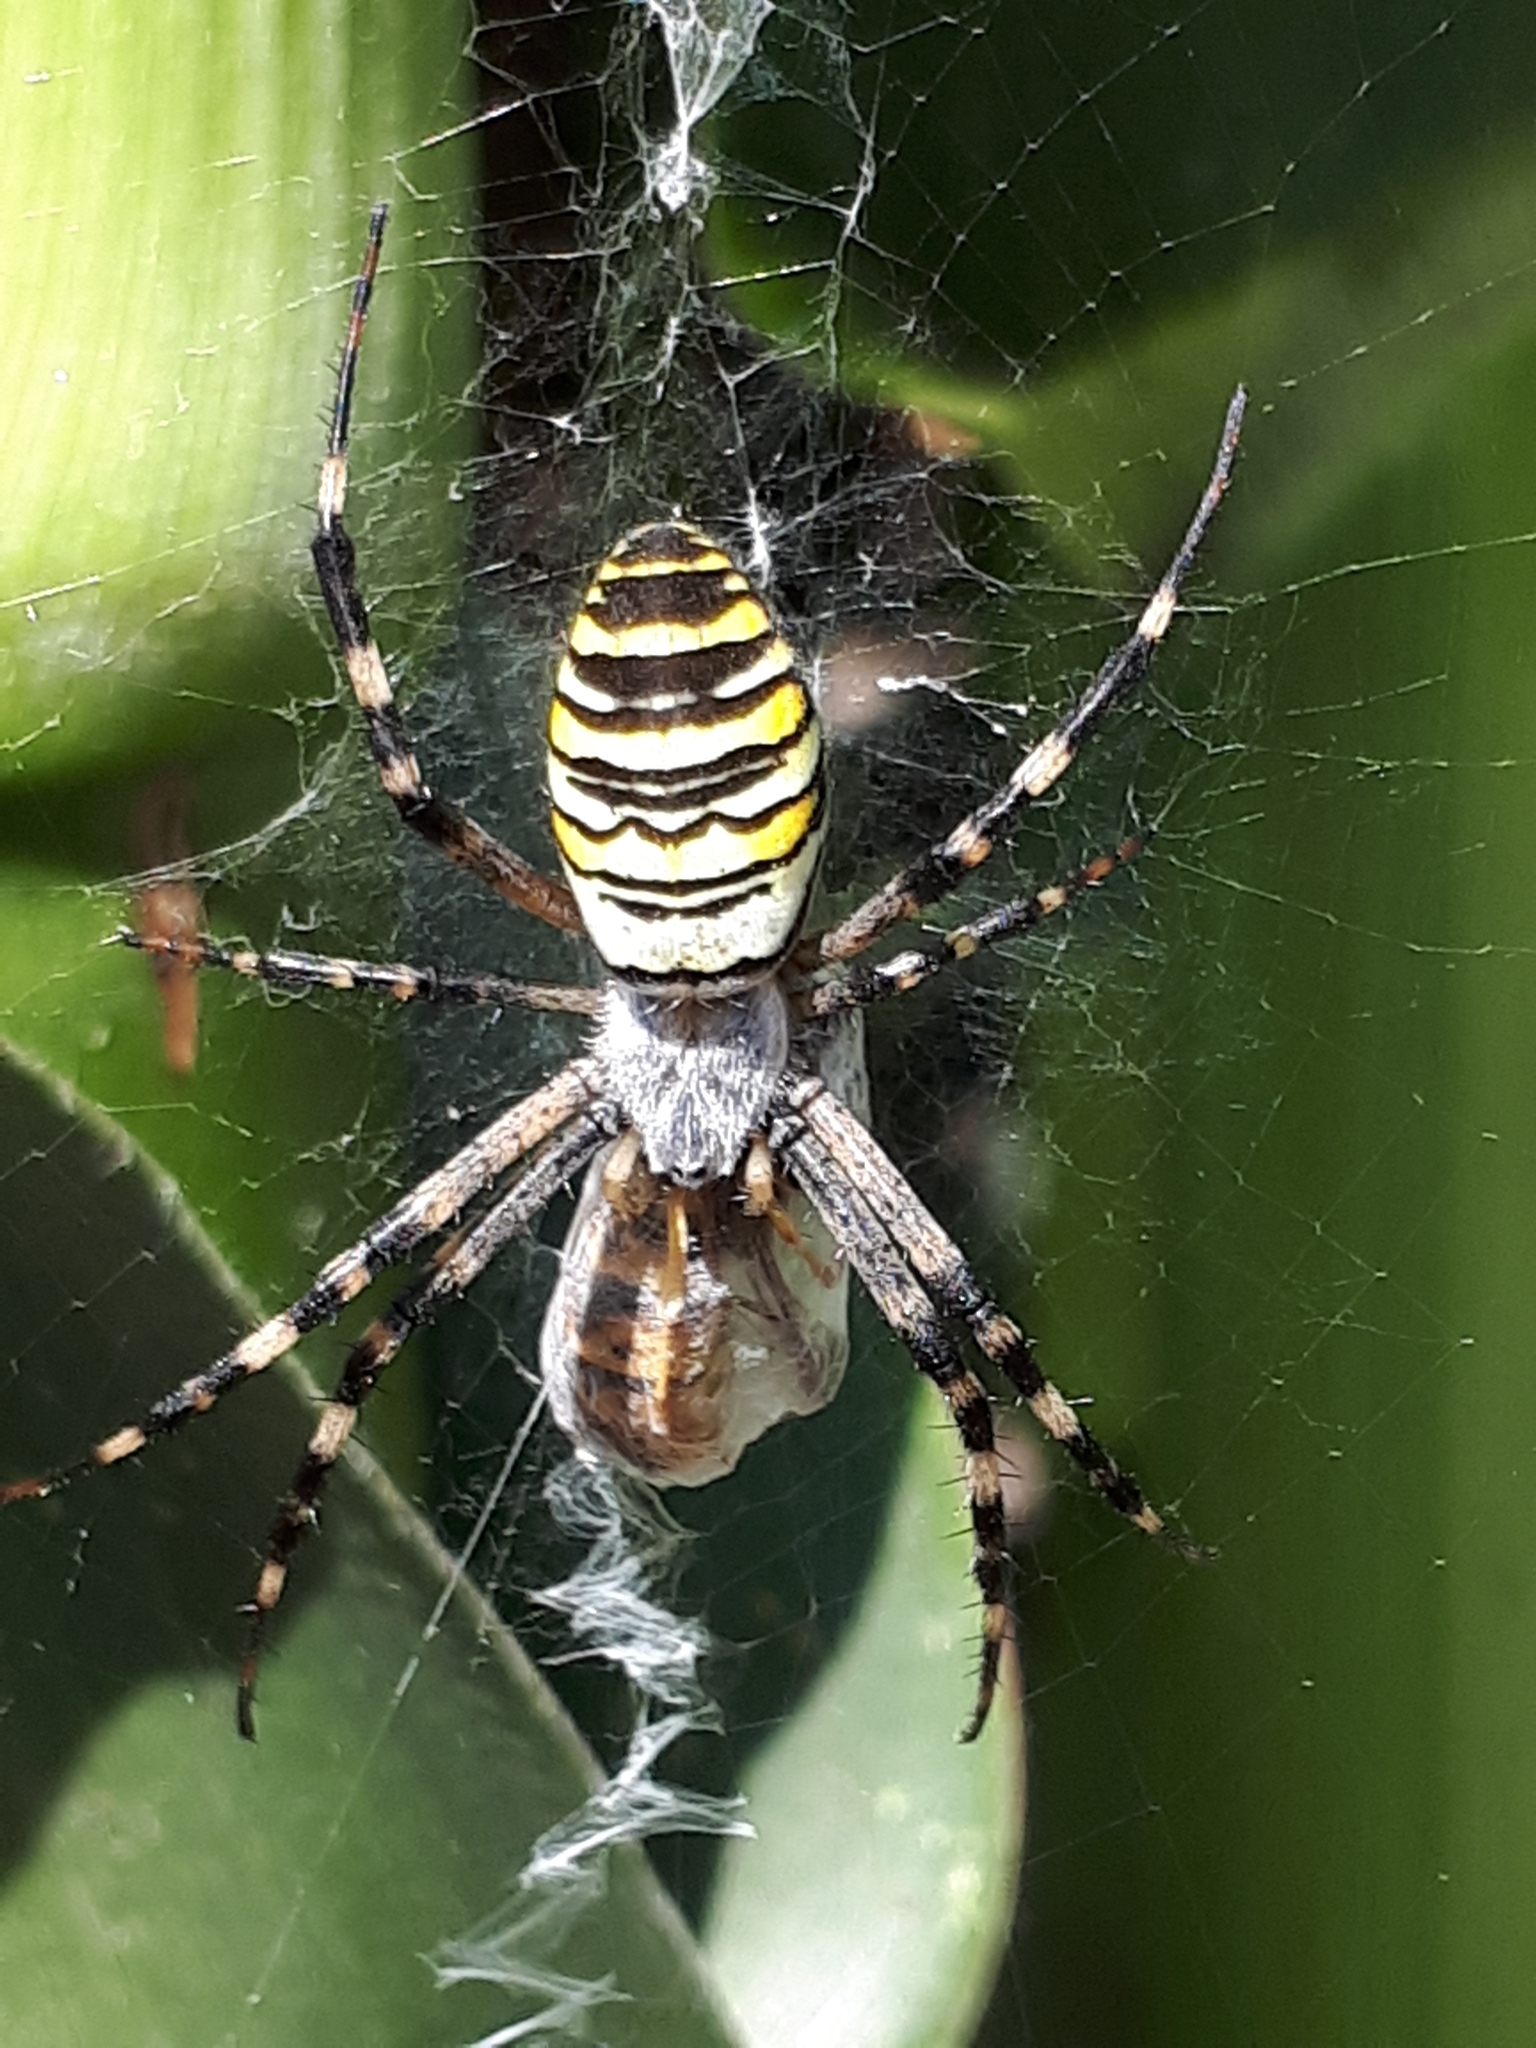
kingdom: Animalia
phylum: Arthropoda
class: Arachnida
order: Araneae
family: Araneidae
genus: Argiope
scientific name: Argiope bruennichi
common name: Wasp spider
